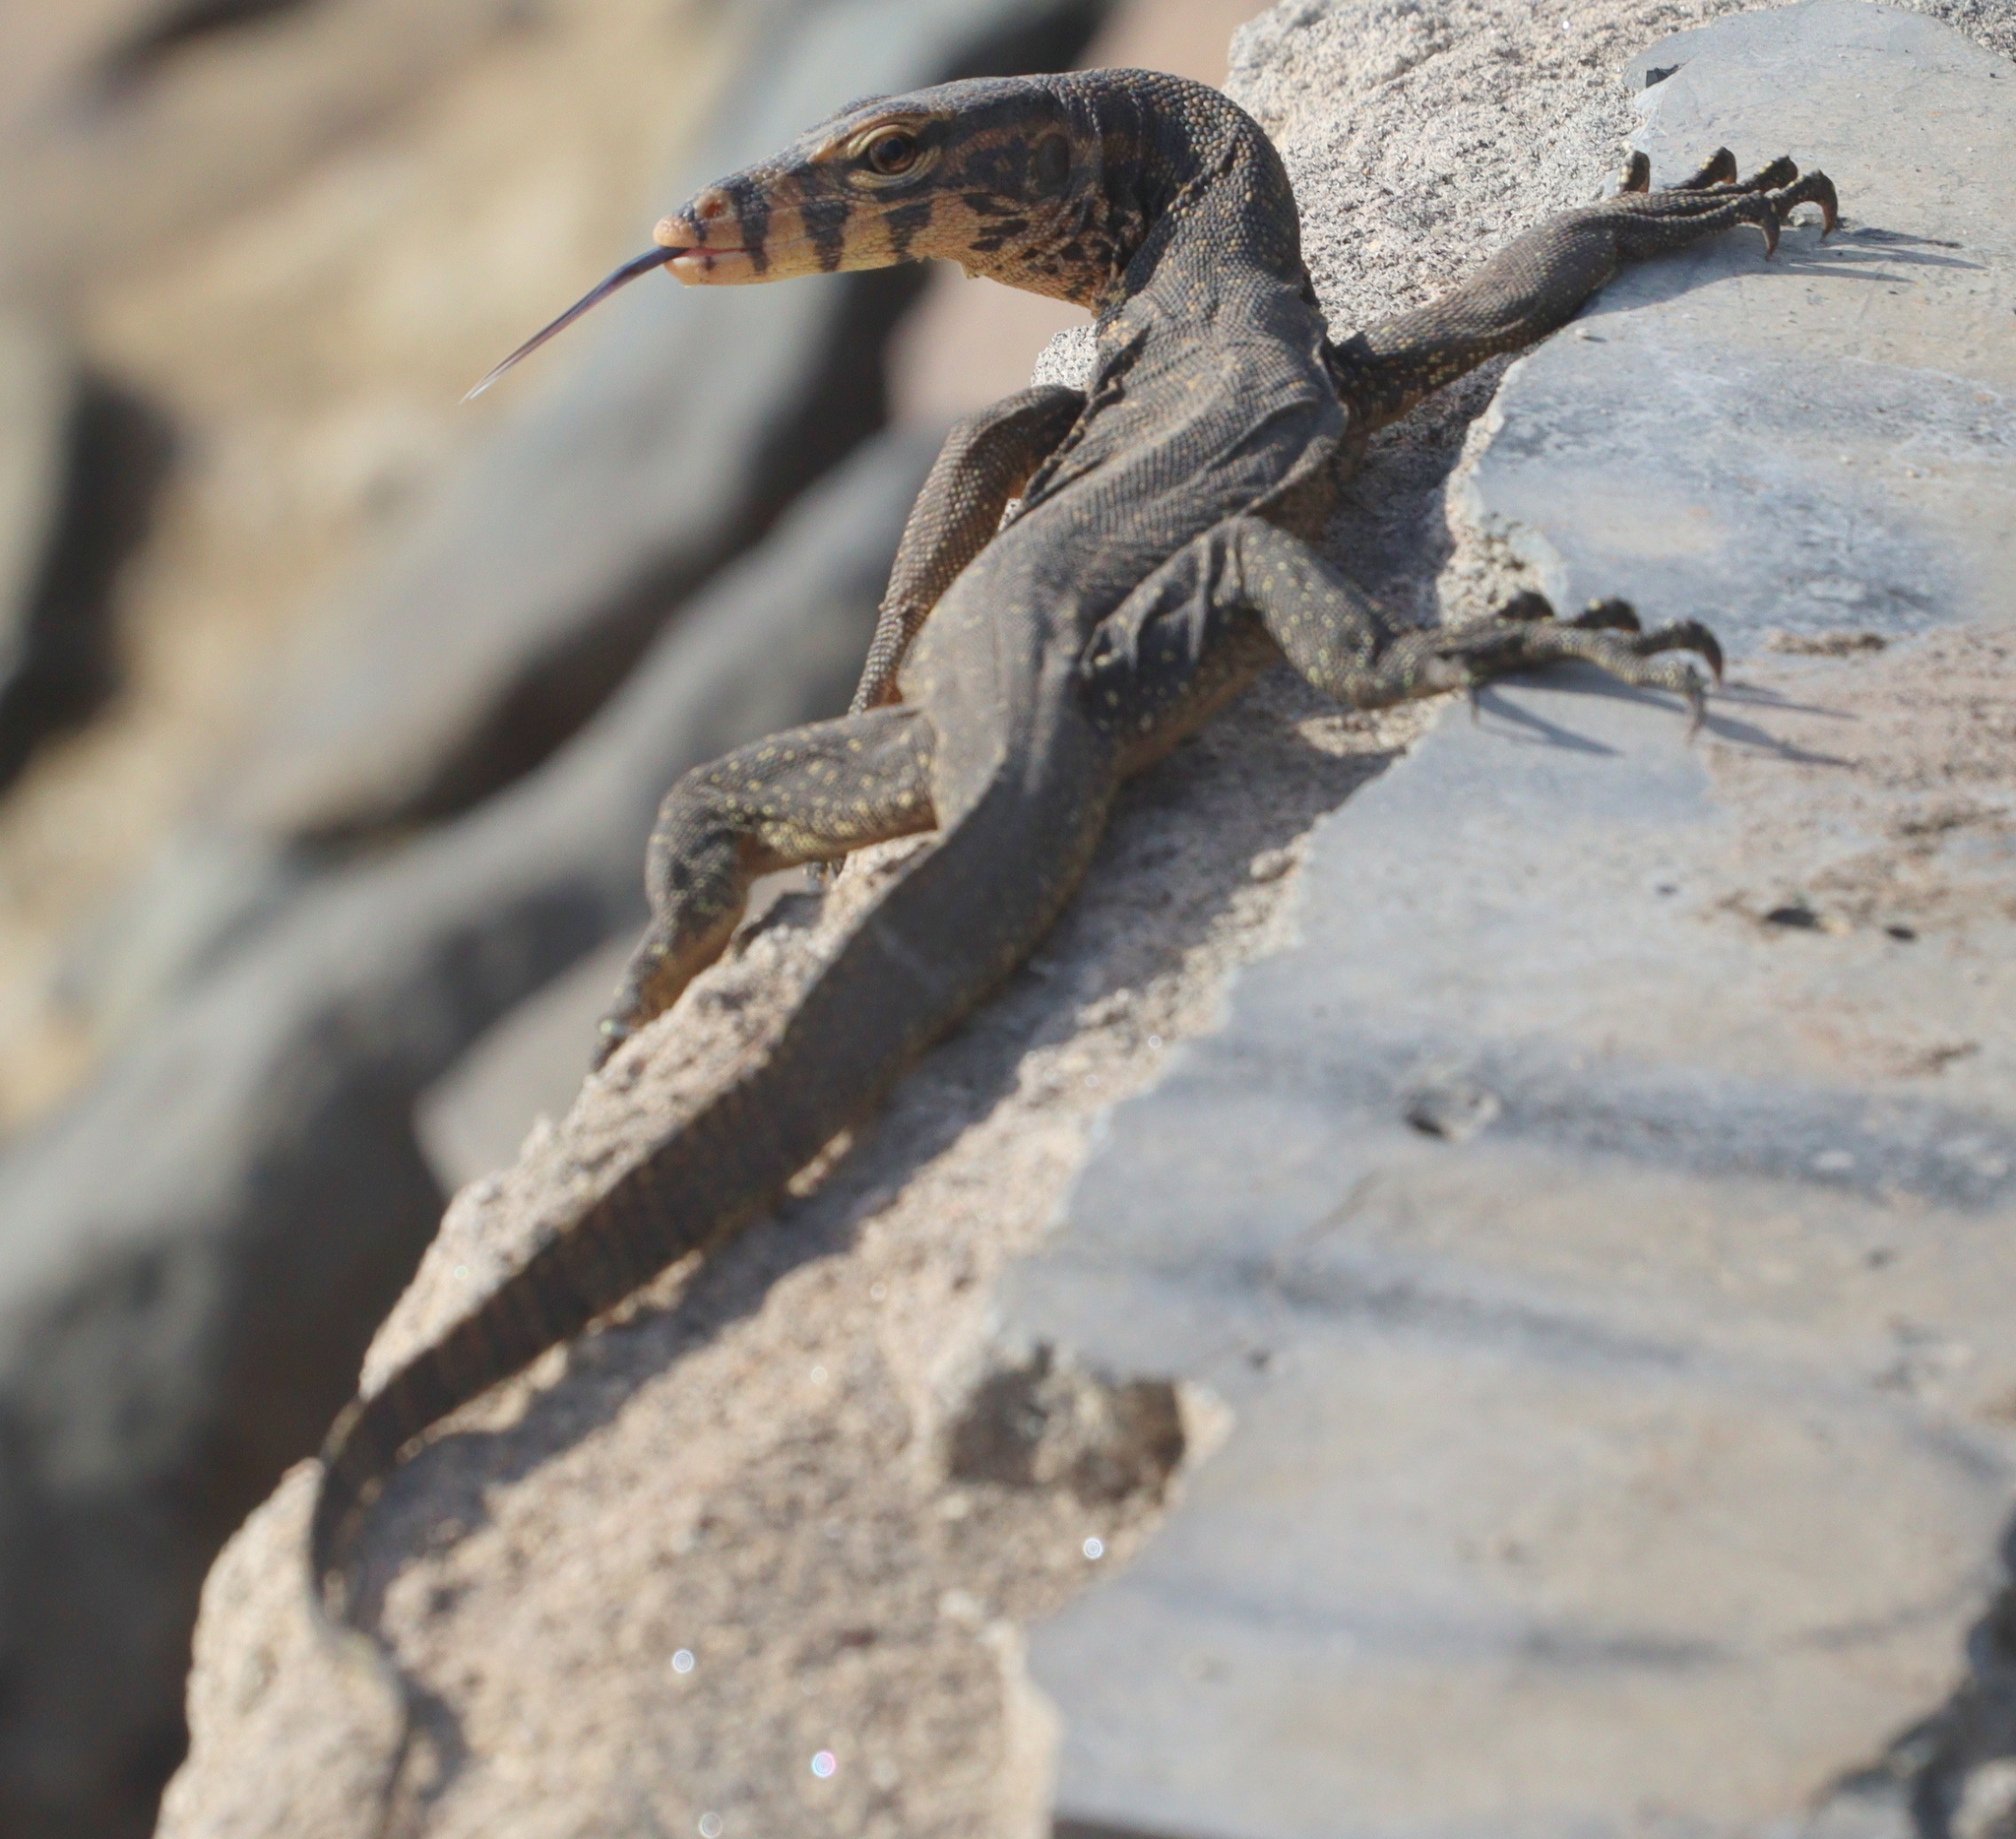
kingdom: Animalia
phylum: Chordata
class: Squamata
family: Varanidae
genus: Varanus
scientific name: Varanus salvator
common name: Common water monitor
